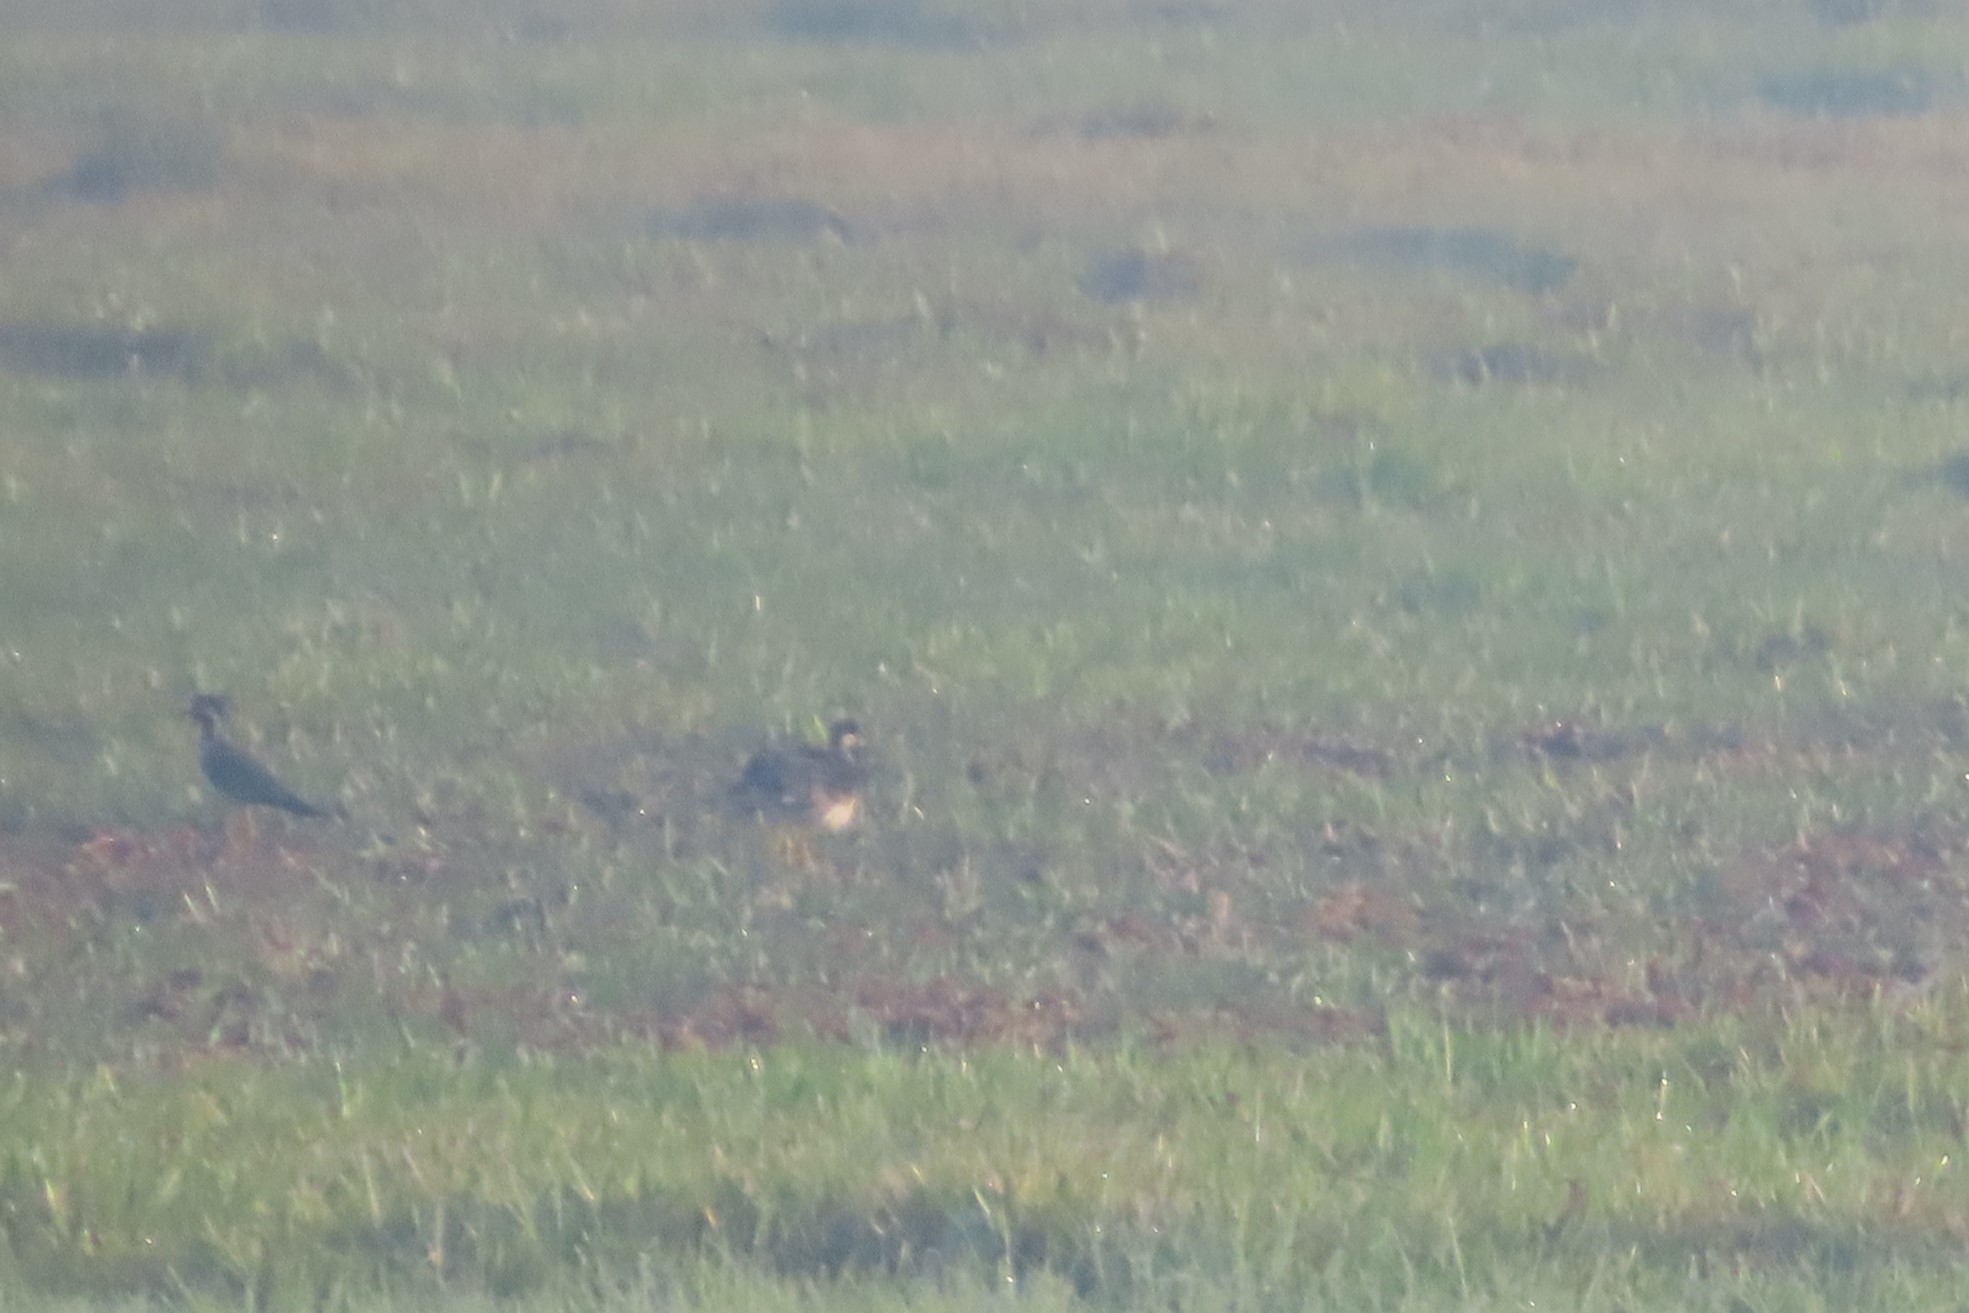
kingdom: Animalia
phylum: Chordata
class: Aves
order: Charadriiformes
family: Charadriidae
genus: Vanellus
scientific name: Vanellus indicus
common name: Red-wattled lapwing
